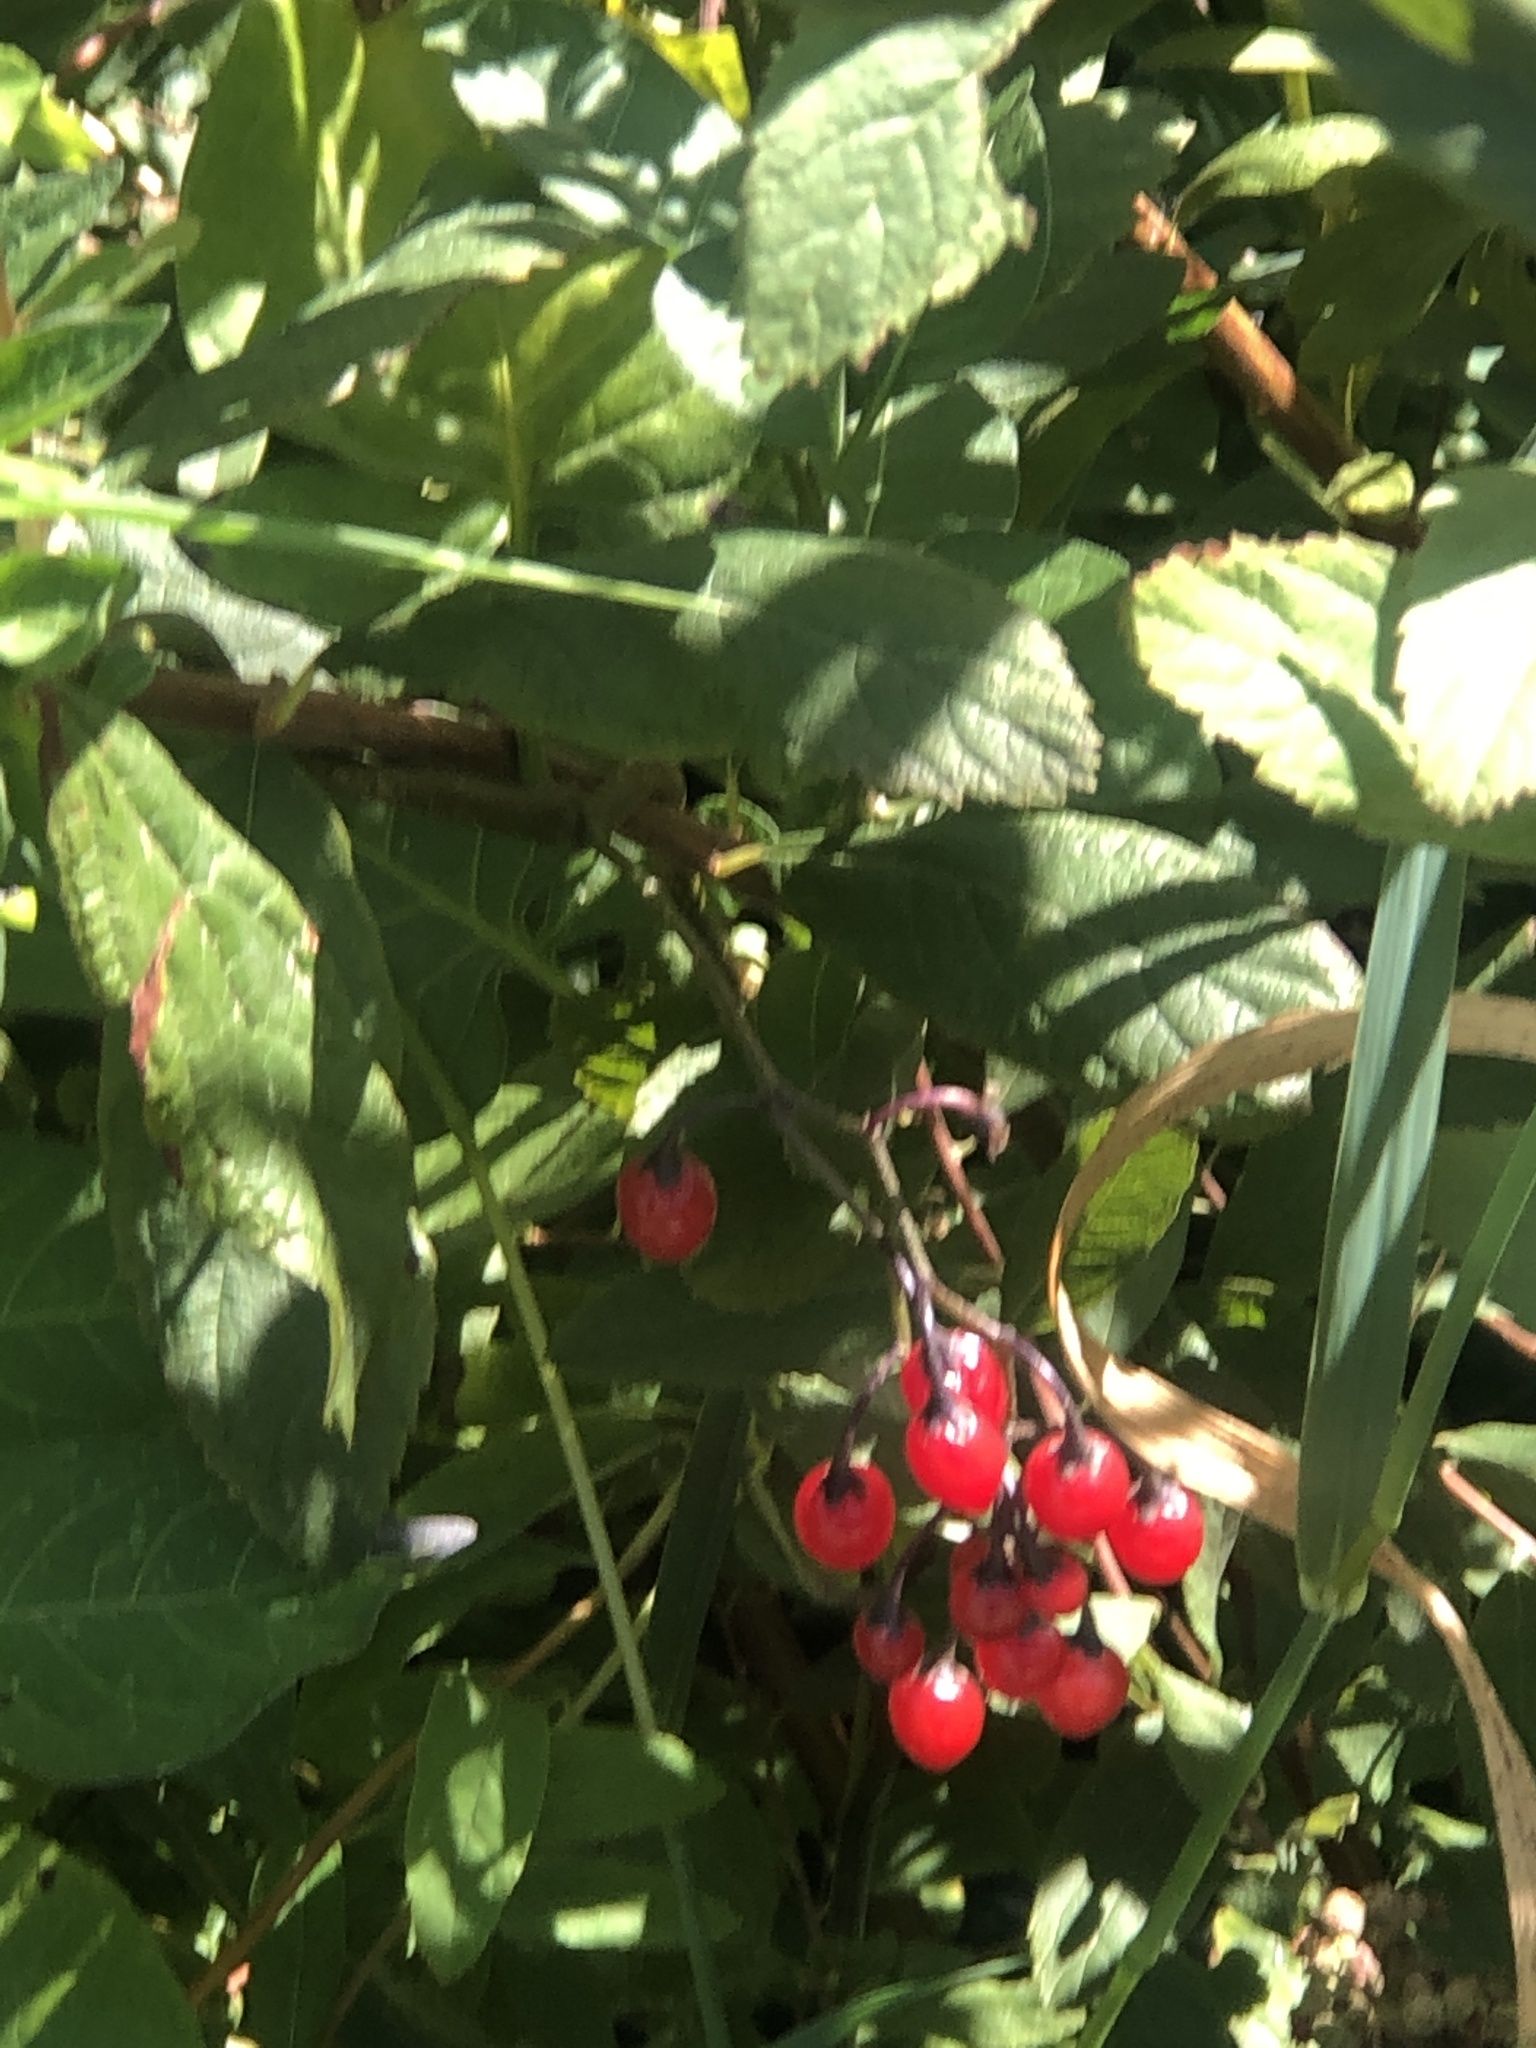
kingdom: Plantae
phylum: Tracheophyta
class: Magnoliopsida
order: Solanales
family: Solanaceae
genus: Solanum
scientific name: Solanum dulcamara
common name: Climbing nightshade
